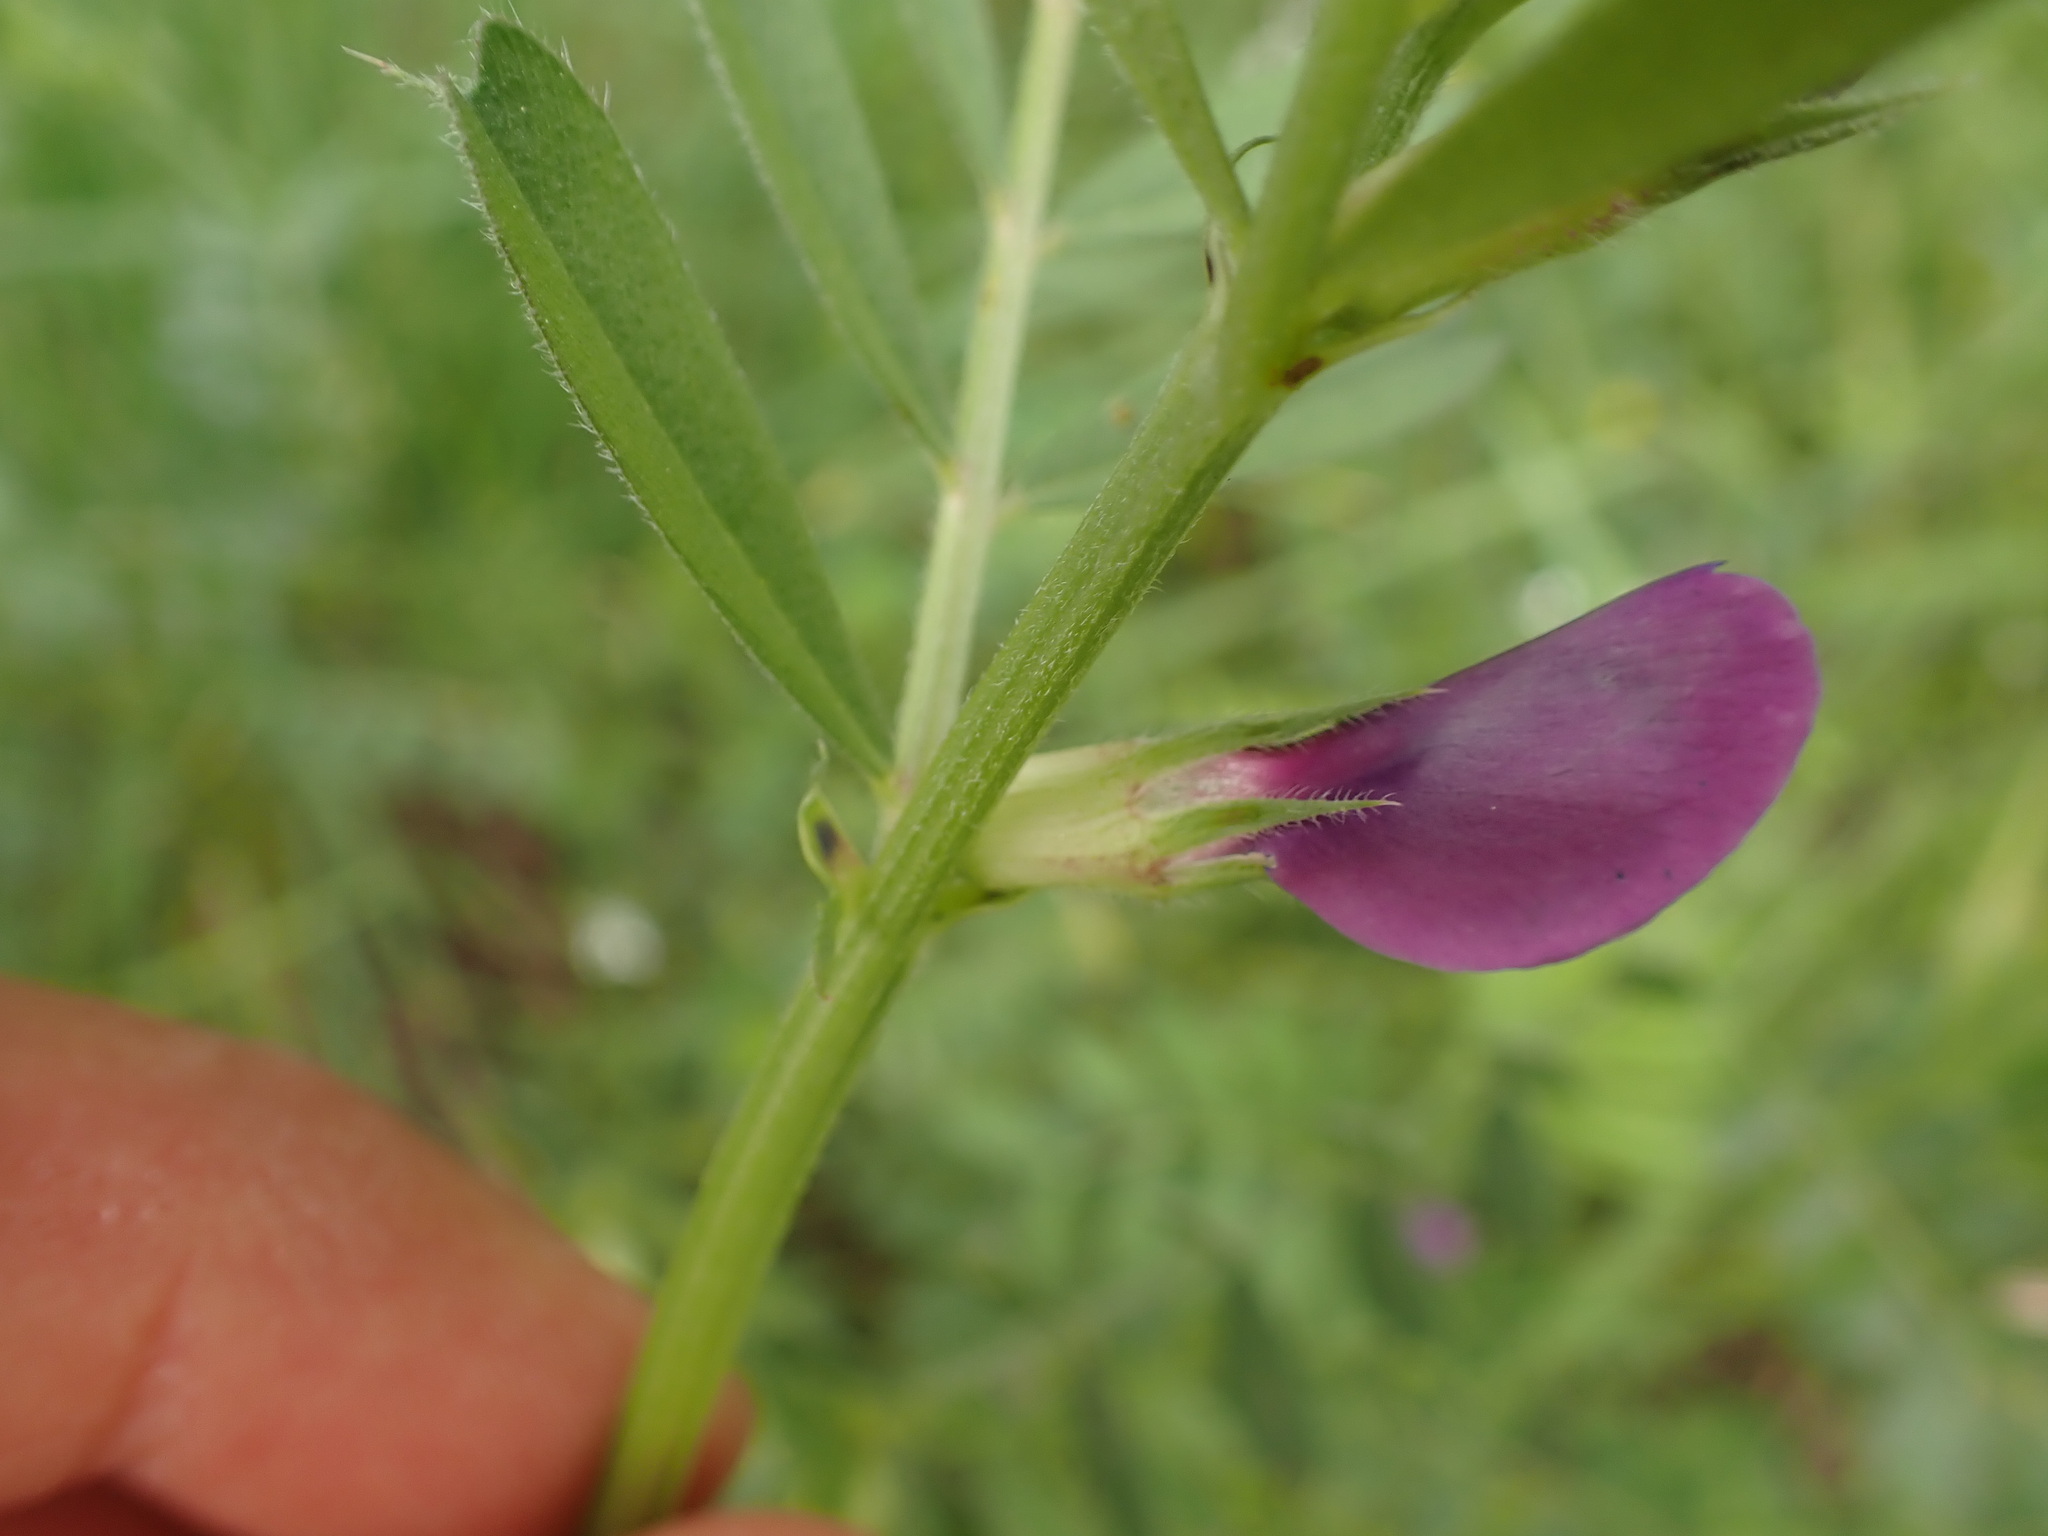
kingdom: Plantae
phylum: Tracheophyta
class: Magnoliopsida
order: Fabales
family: Fabaceae
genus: Vicia
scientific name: Vicia sativa
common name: Garden vetch
